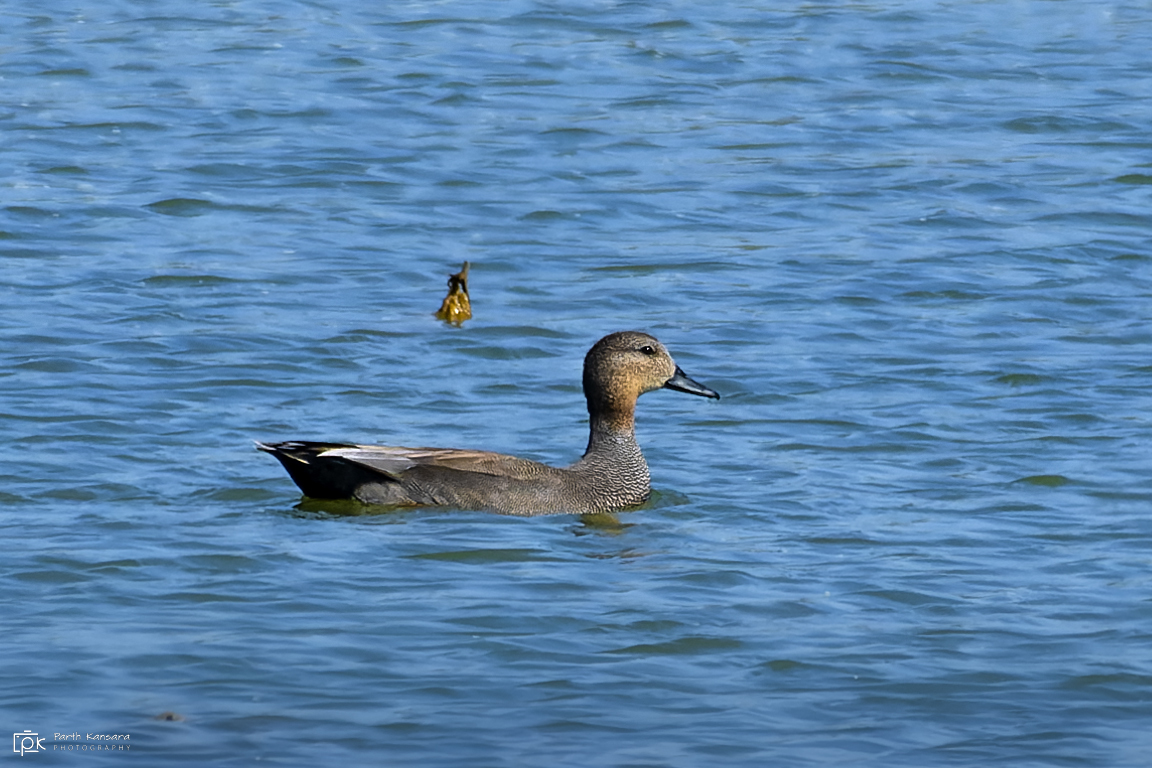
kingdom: Animalia
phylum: Chordata
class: Aves
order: Anseriformes
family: Anatidae
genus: Mareca
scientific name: Mareca strepera
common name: Gadwall
